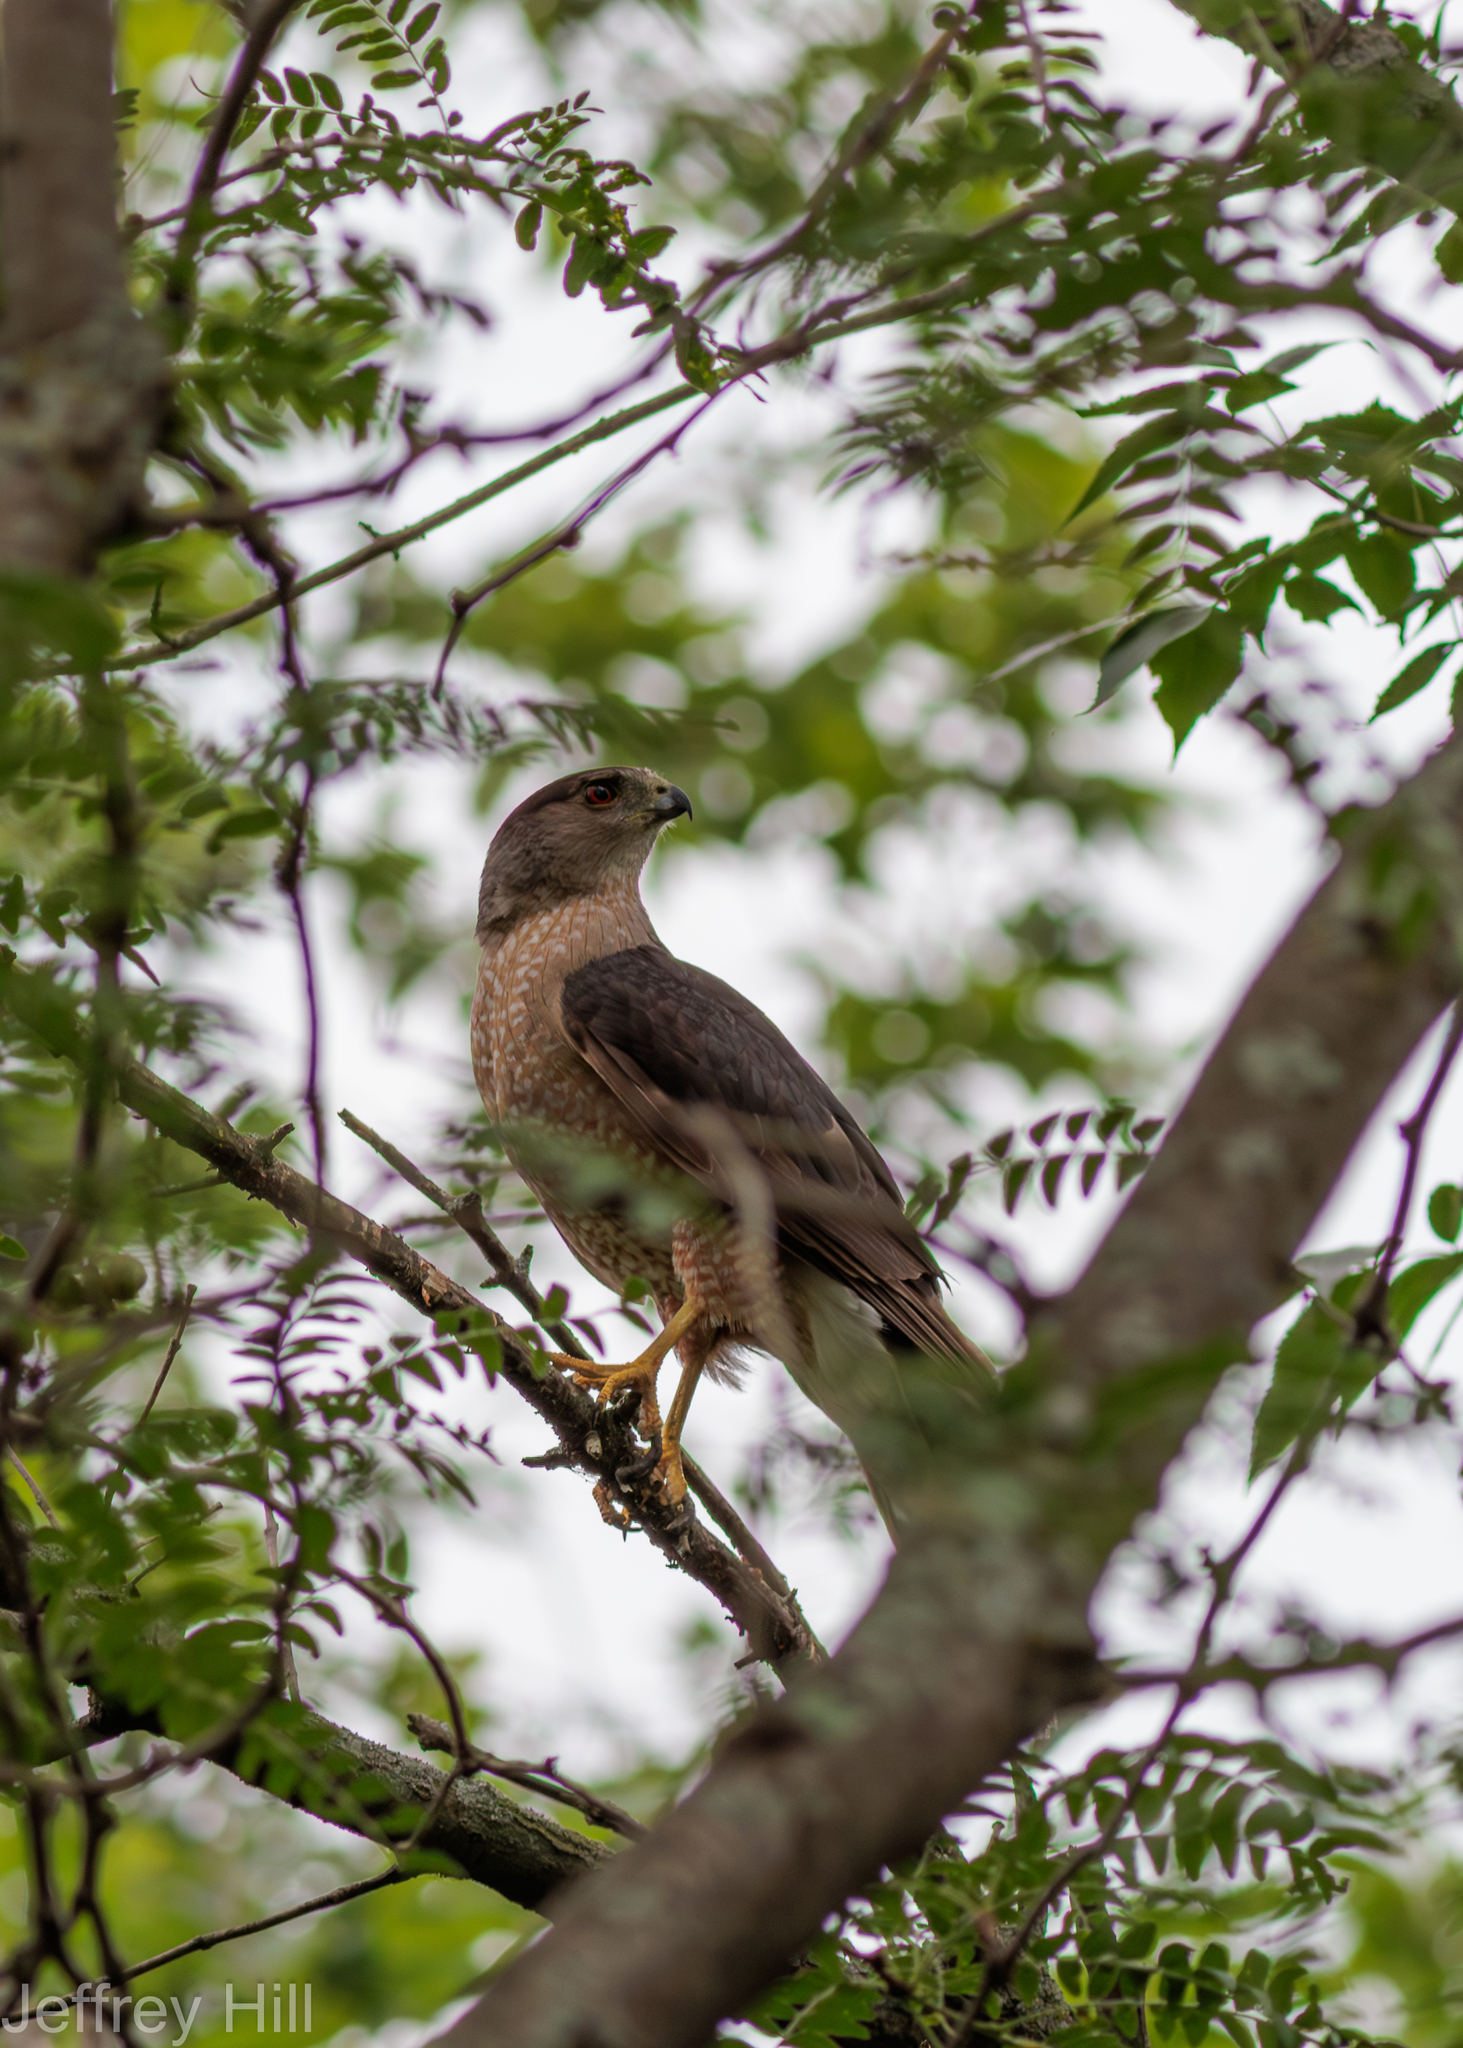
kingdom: Animalia
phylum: Chordata
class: Aves
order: Accipitriformes
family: Accipitridae
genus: Accipiter
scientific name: Accipiter cooperii
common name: Cooper's hawk
